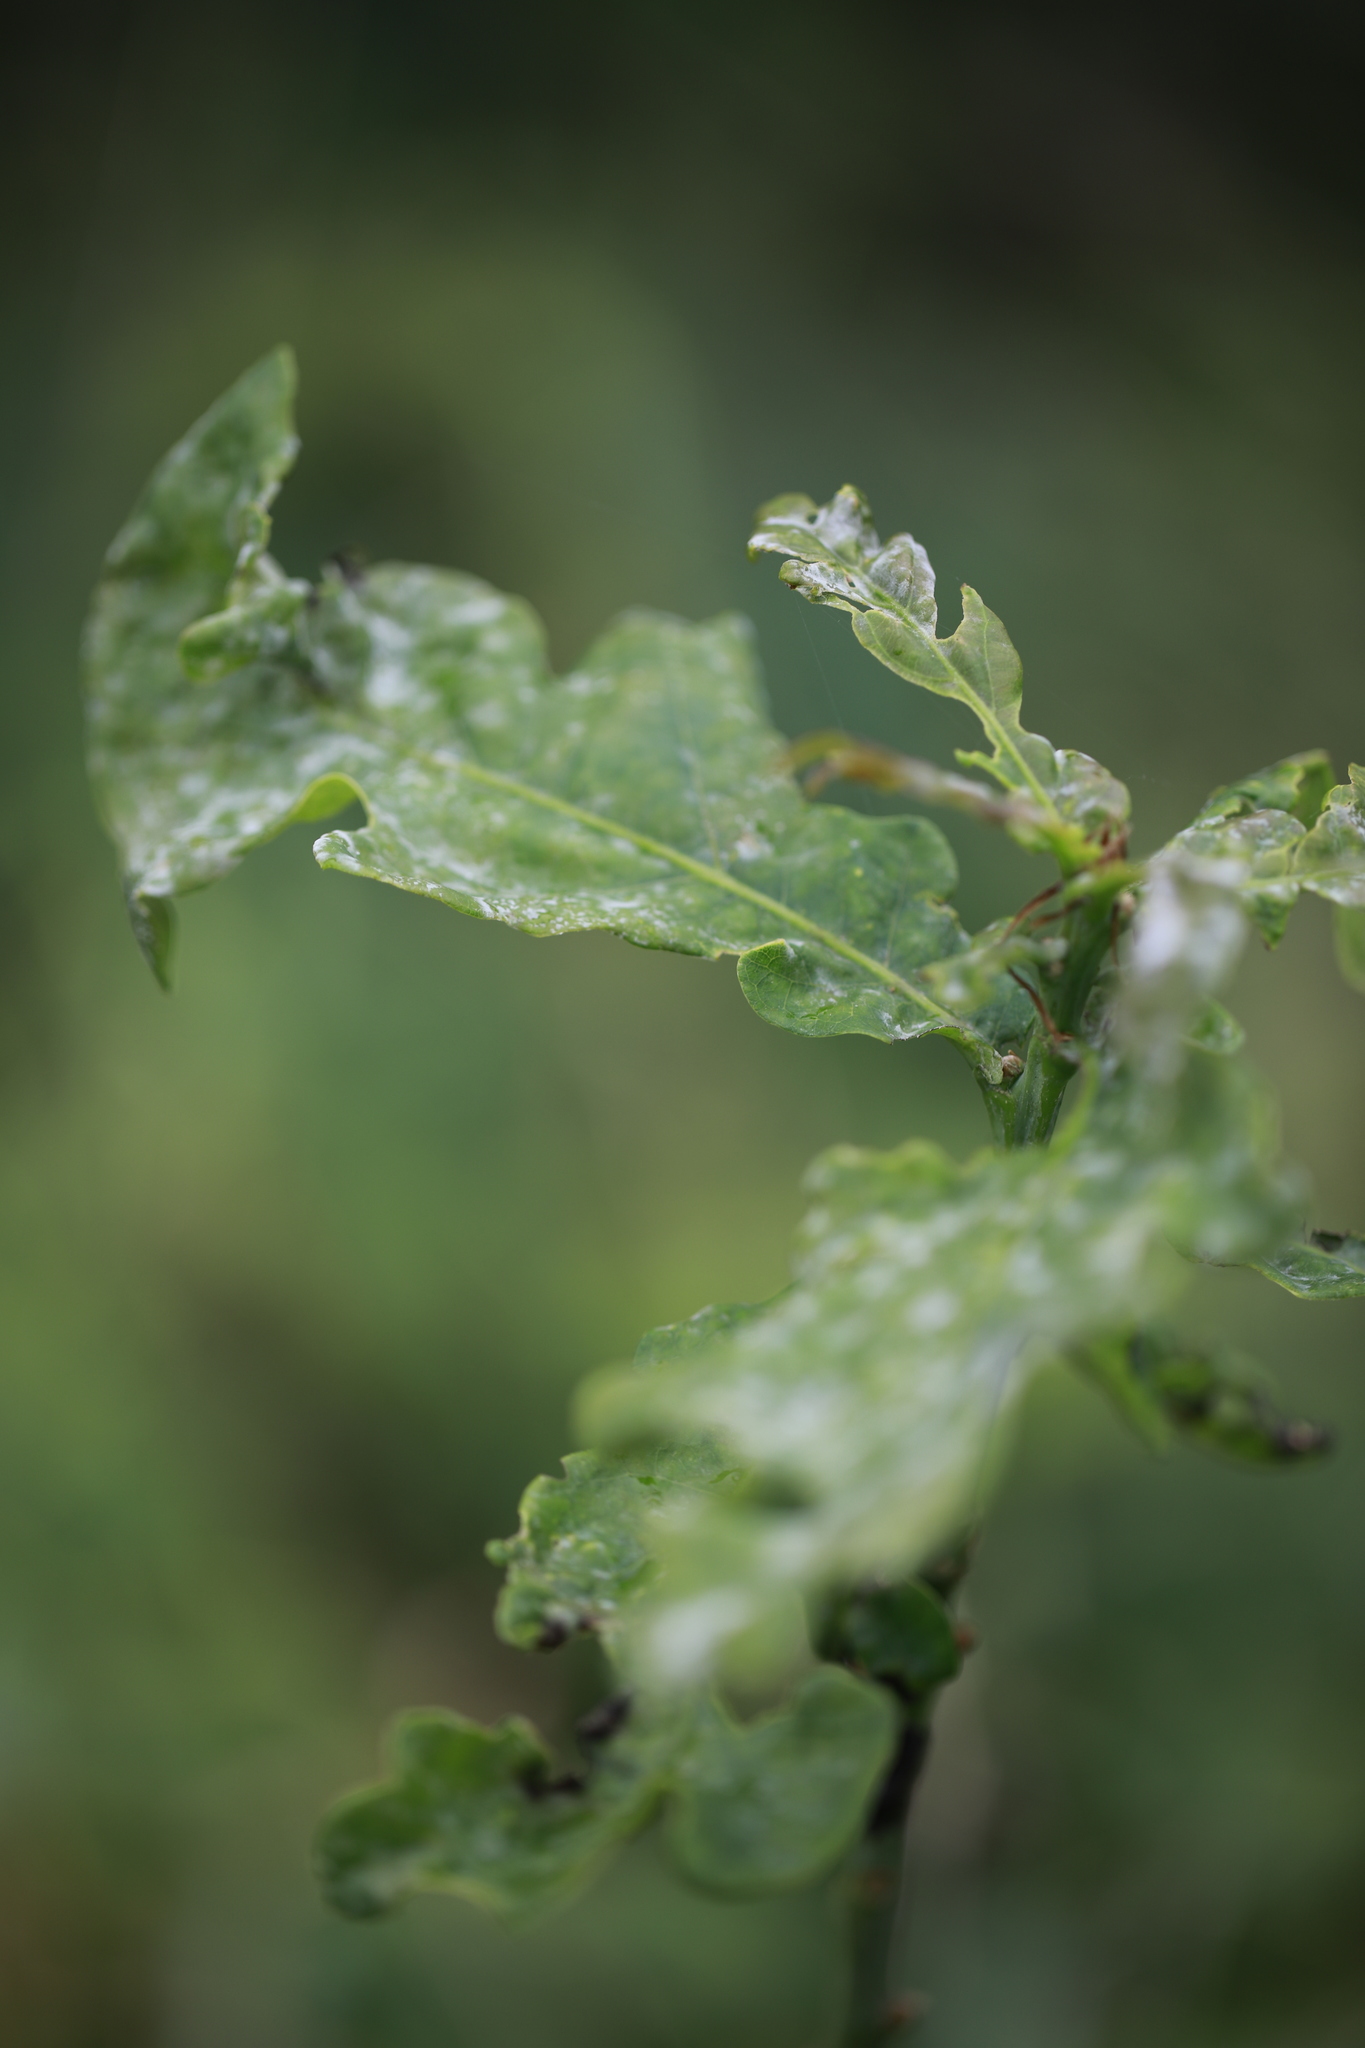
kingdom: Fungi
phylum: Ascomycota
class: Leotiomycetes
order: Helotiales
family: Erysiphaceae
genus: Erysiphe
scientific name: Erysiphe alphitoides
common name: Oak mildew
